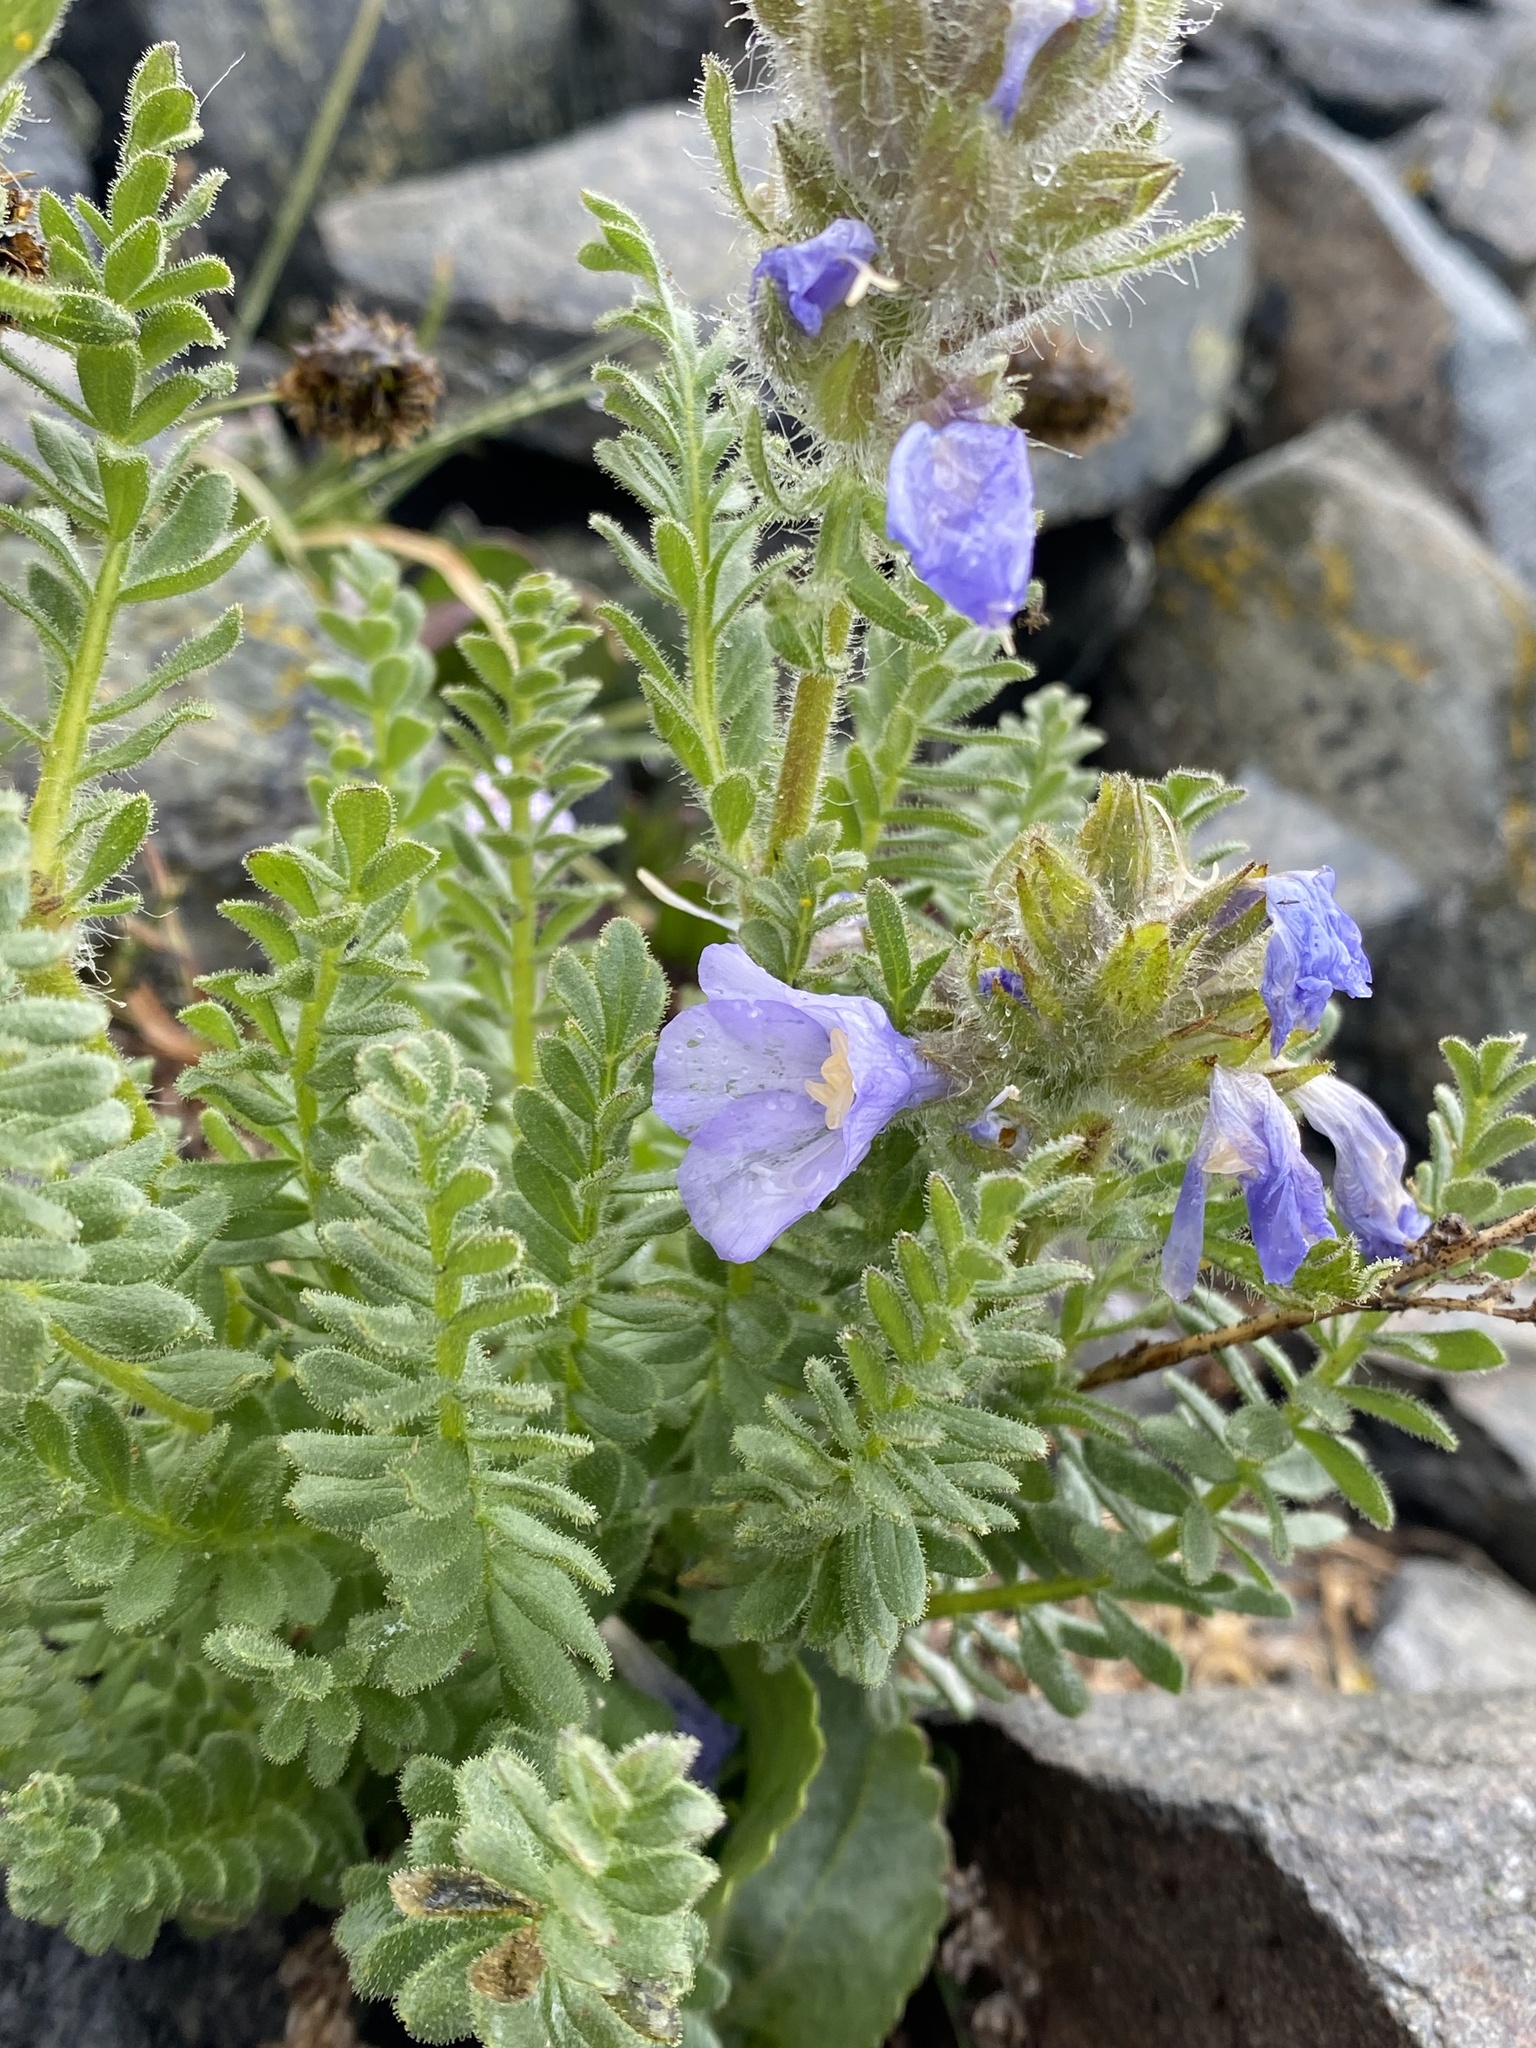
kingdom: Plantae
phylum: Tracheophyta
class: Magnoliopsida
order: Ericales
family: Polemoniaceae
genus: Polemonium
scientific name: Polemonium viscosum
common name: Skunk jacob's-ladder
